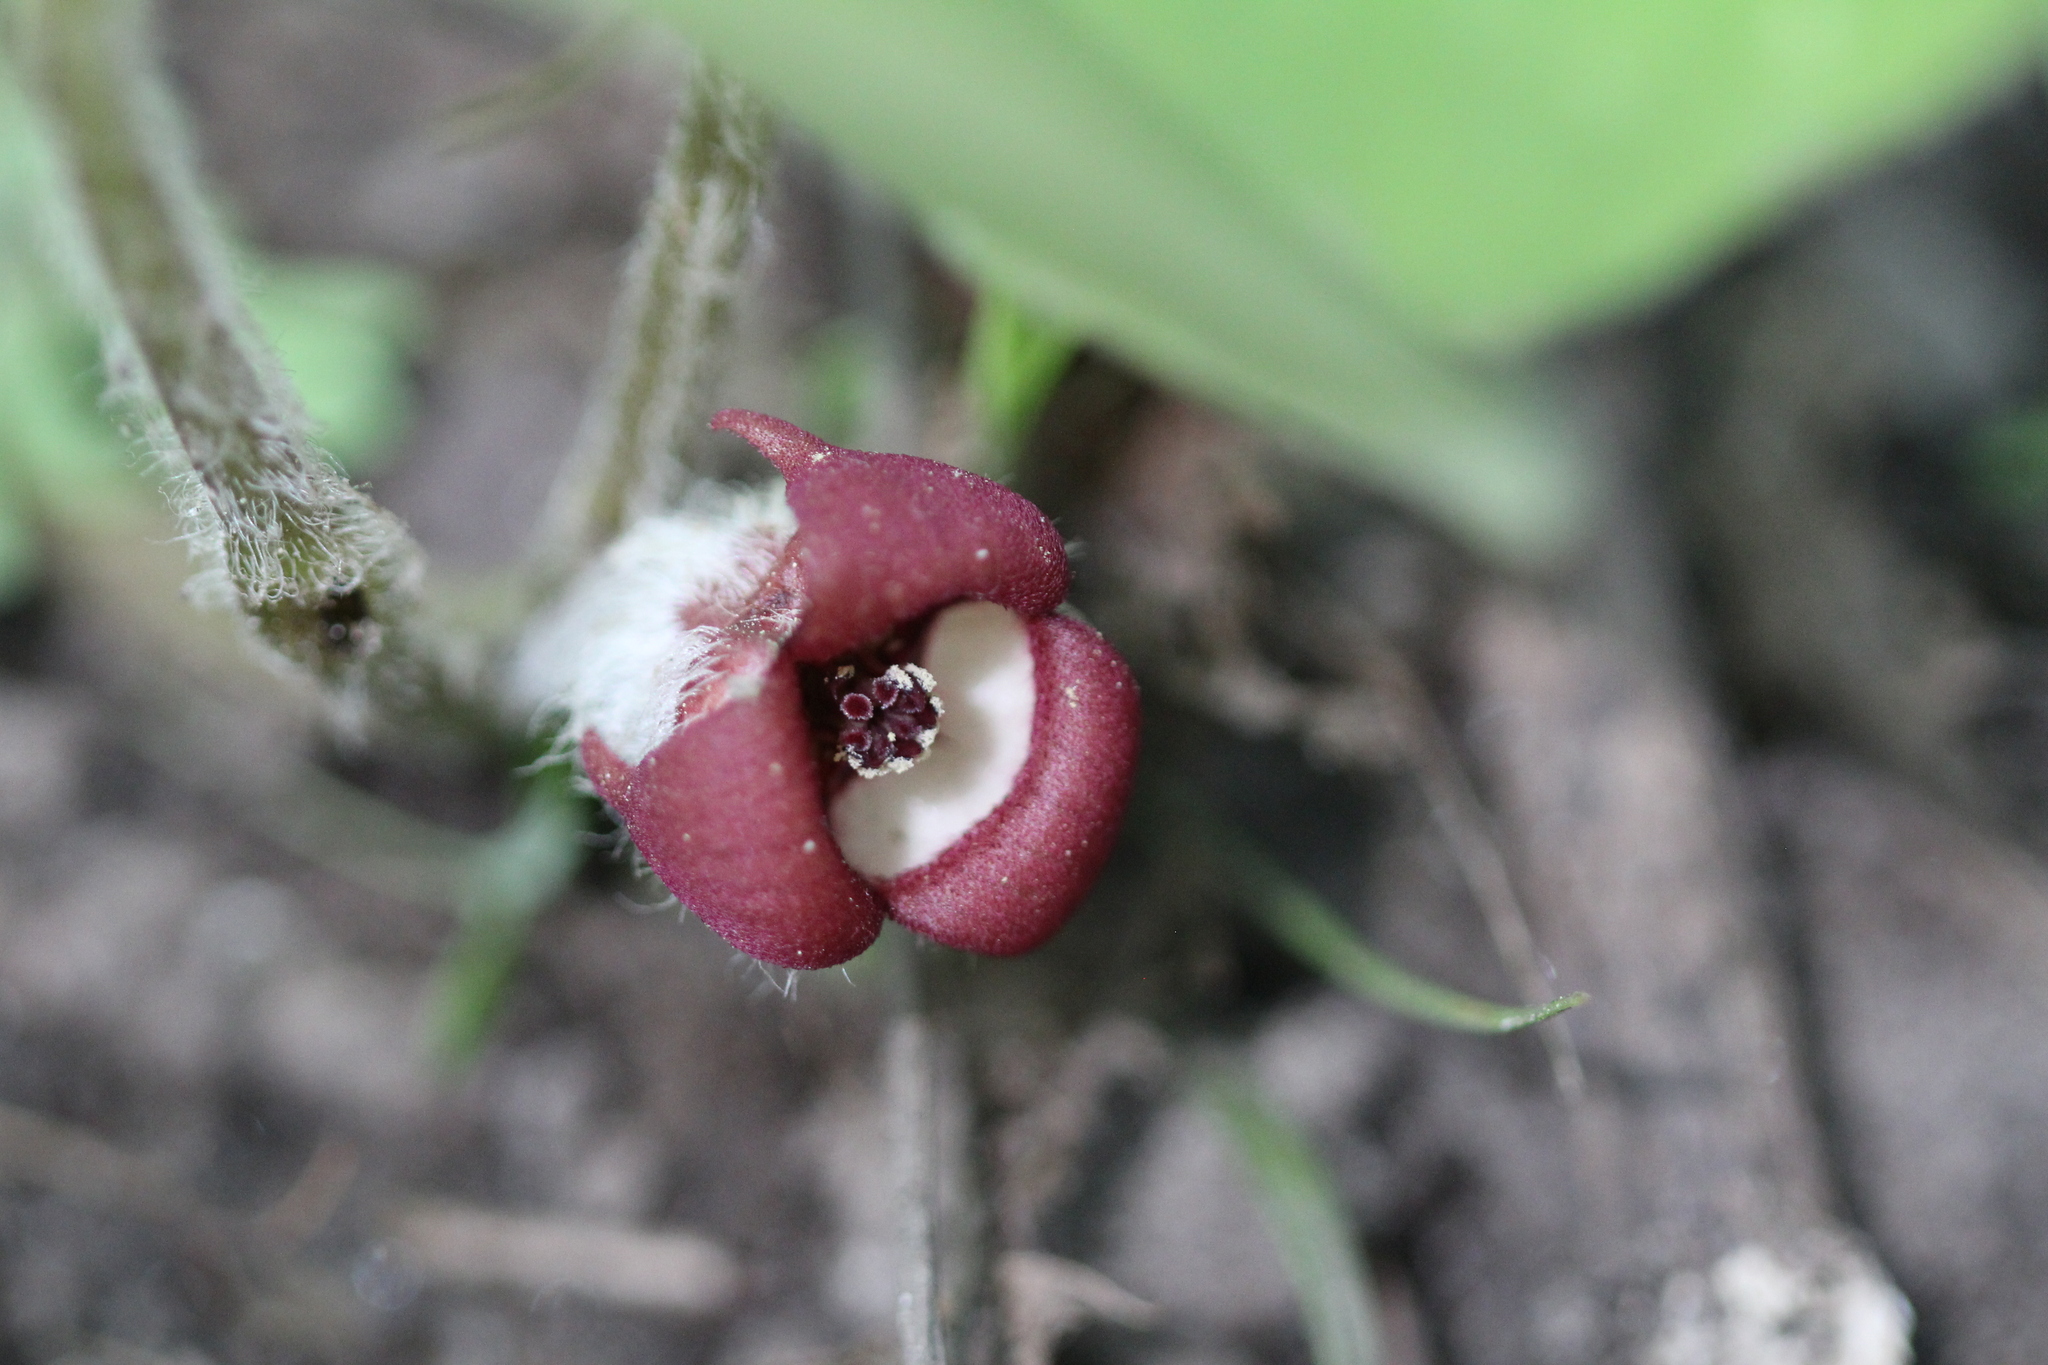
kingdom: Plantae
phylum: Tracheophyta
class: Magnoliopsida
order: Piperales
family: Aristolochiaceae
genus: Asarum
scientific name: Asarum canadense
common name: Wild ginger
